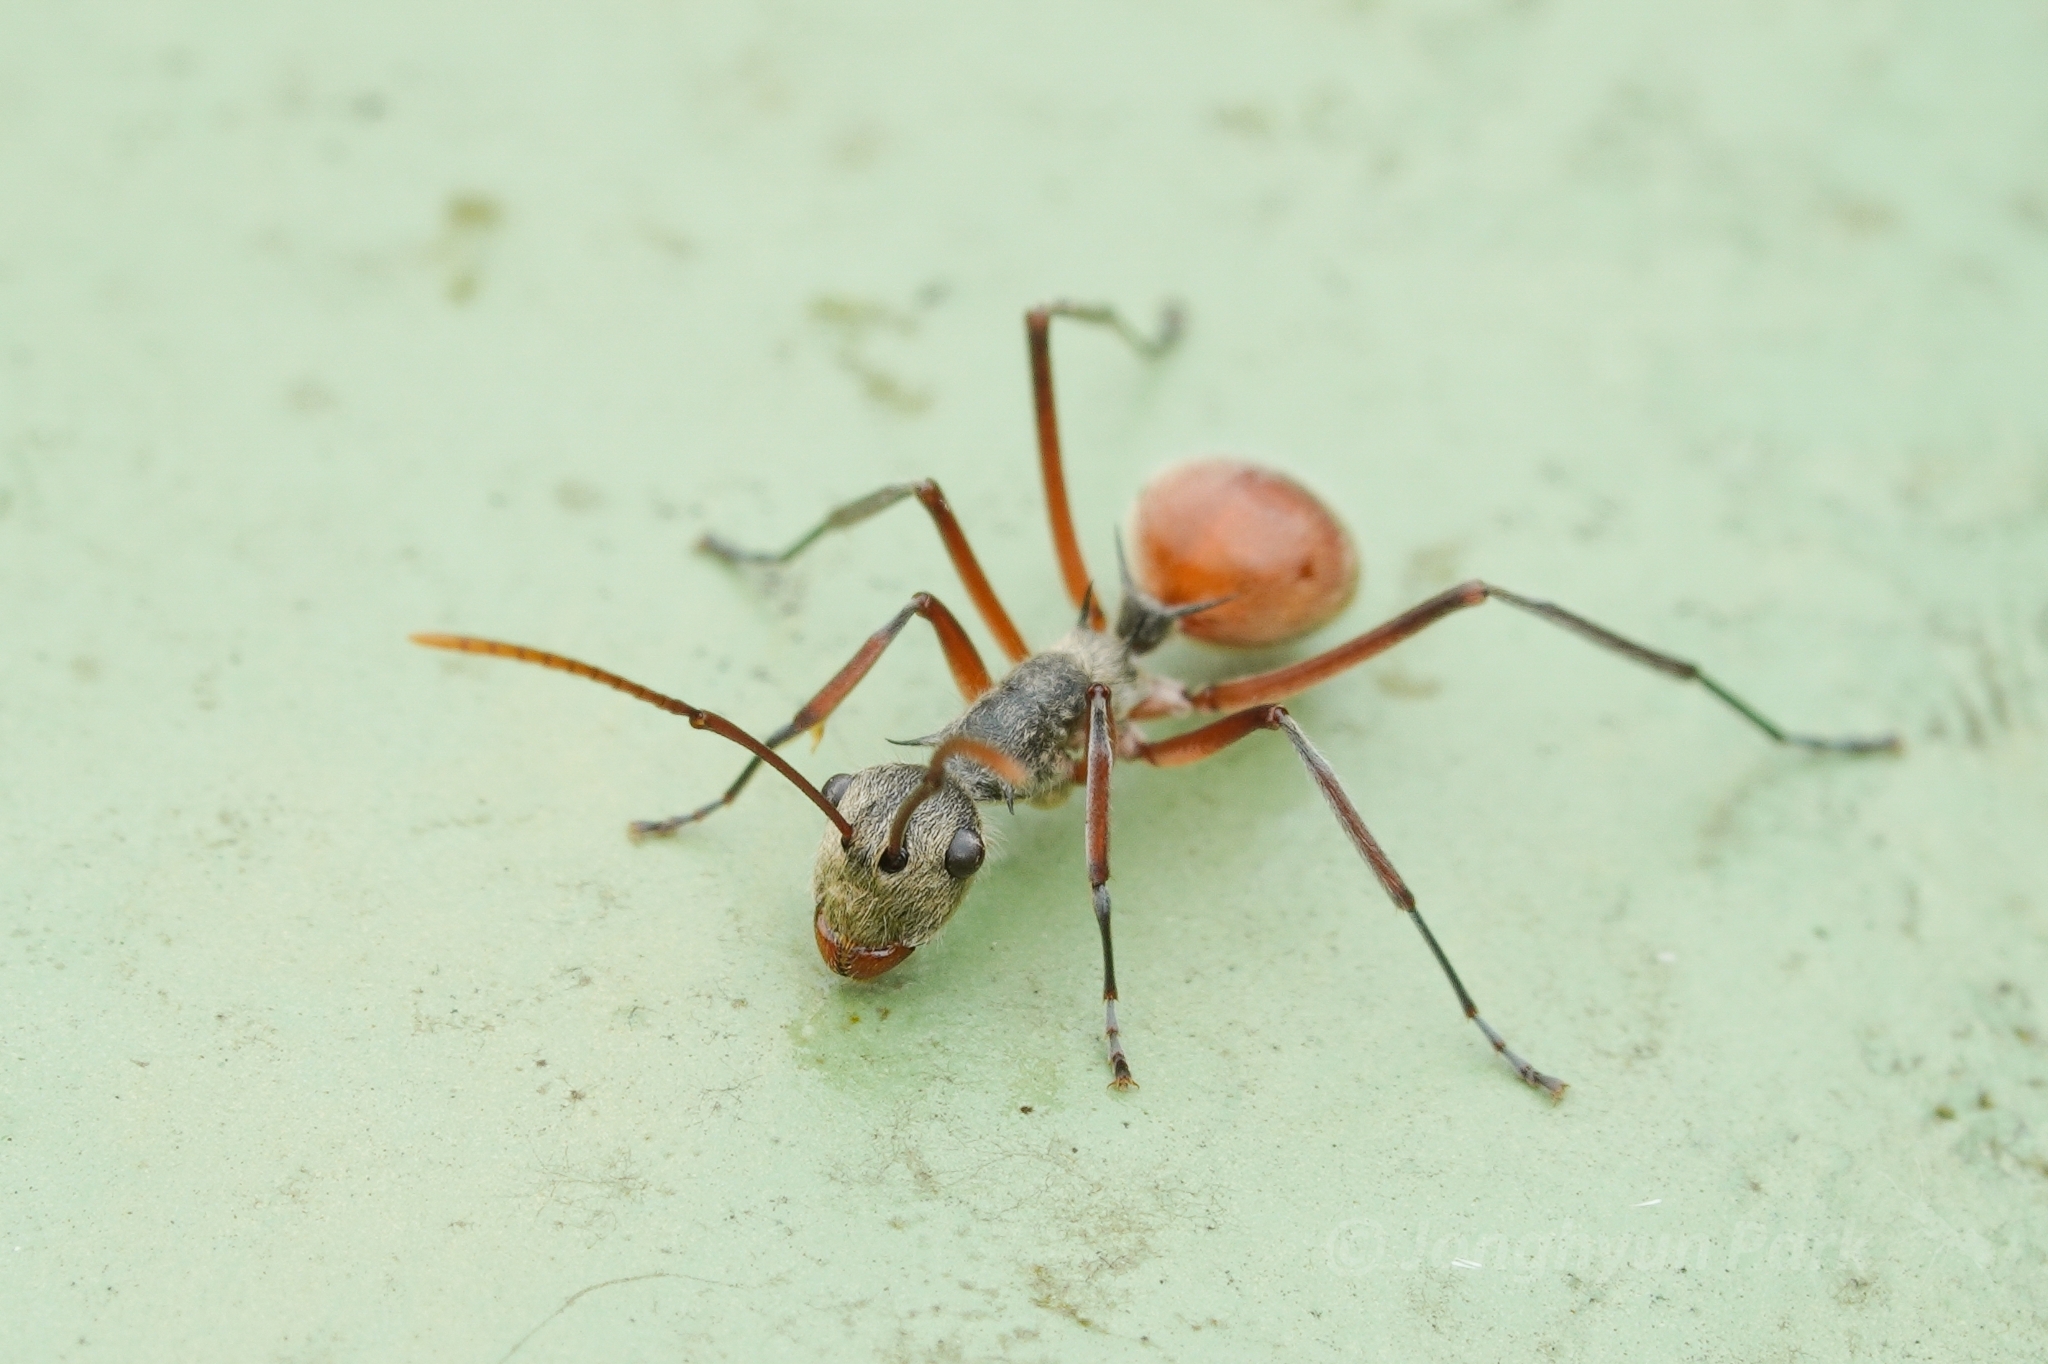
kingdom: Animalia
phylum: Arthropoda
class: Insecta
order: Hymenoptera
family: Formicidae
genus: Polyrhachis
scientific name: Polyrhachis bicolor
